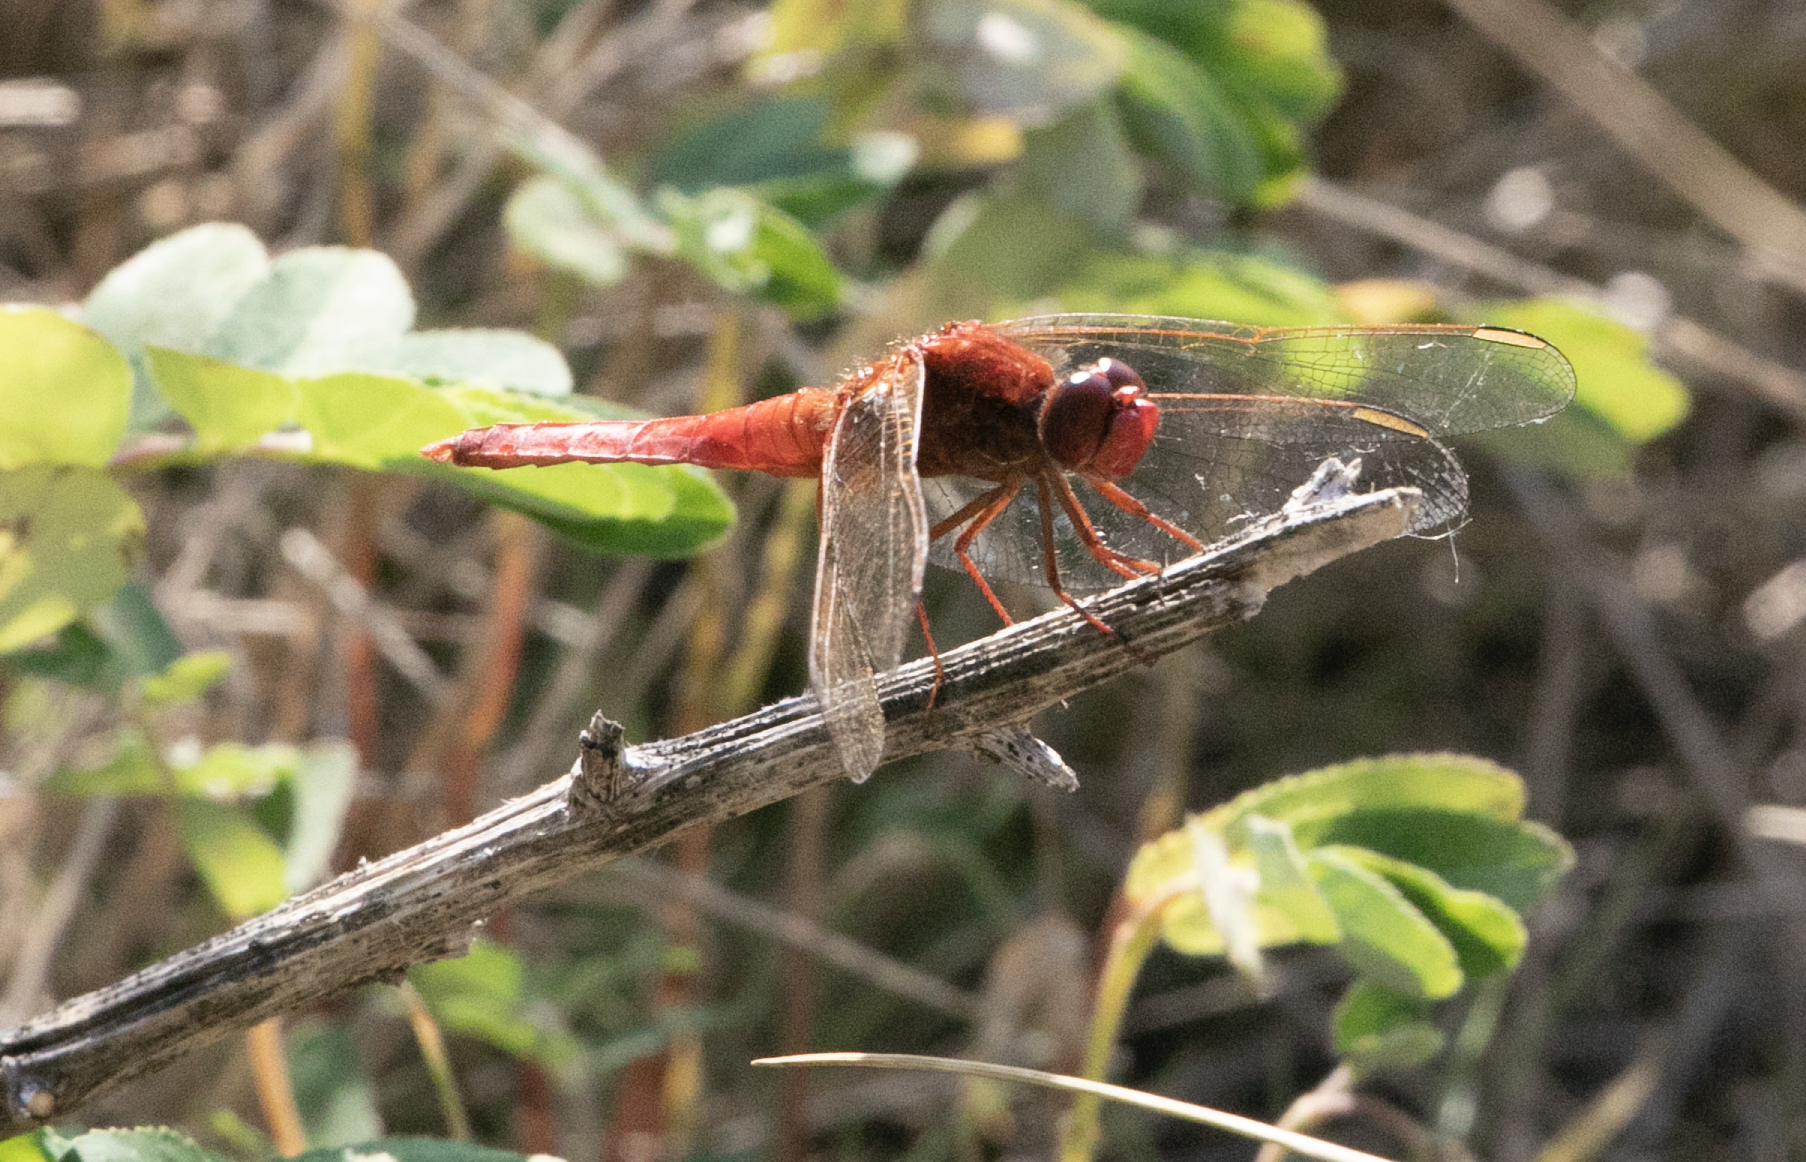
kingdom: Animalia
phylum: Arthropoda
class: Insecta
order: Odonata
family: Libellulidae
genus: Crocothemis
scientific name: Crocothemis erythraea
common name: Scarlet dragonfly
